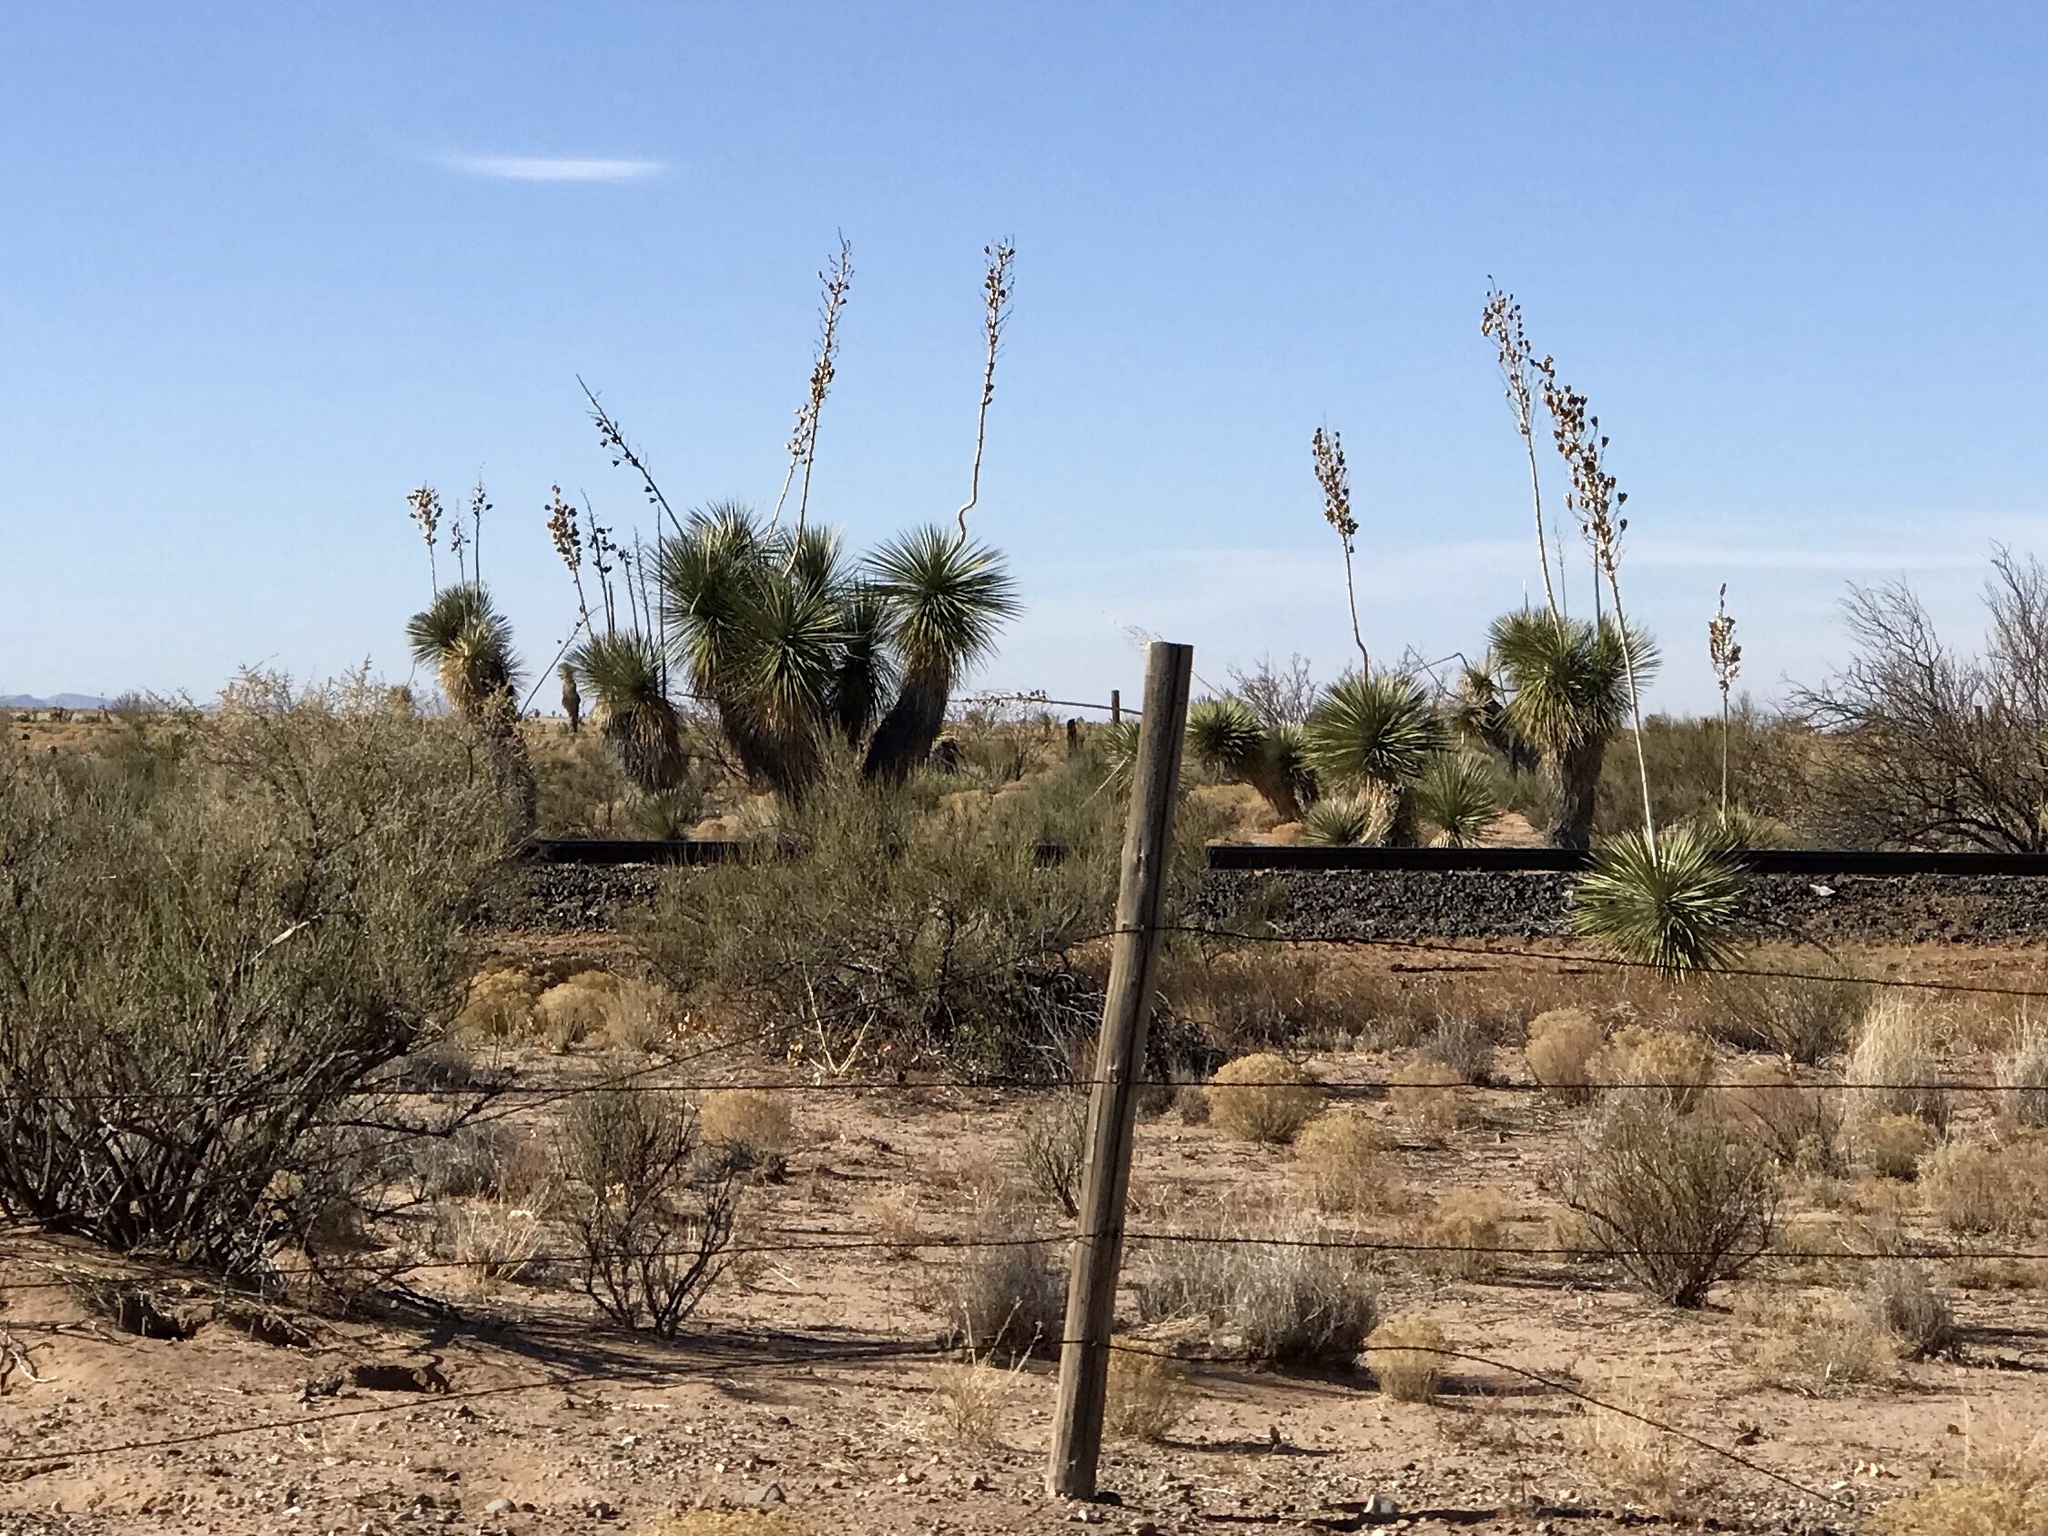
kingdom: Plantae
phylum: Tracheophyta
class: Liliopsida
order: Asparagales
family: Asparagaceae
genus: Yucca
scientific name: Yucca elata
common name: Palmella
